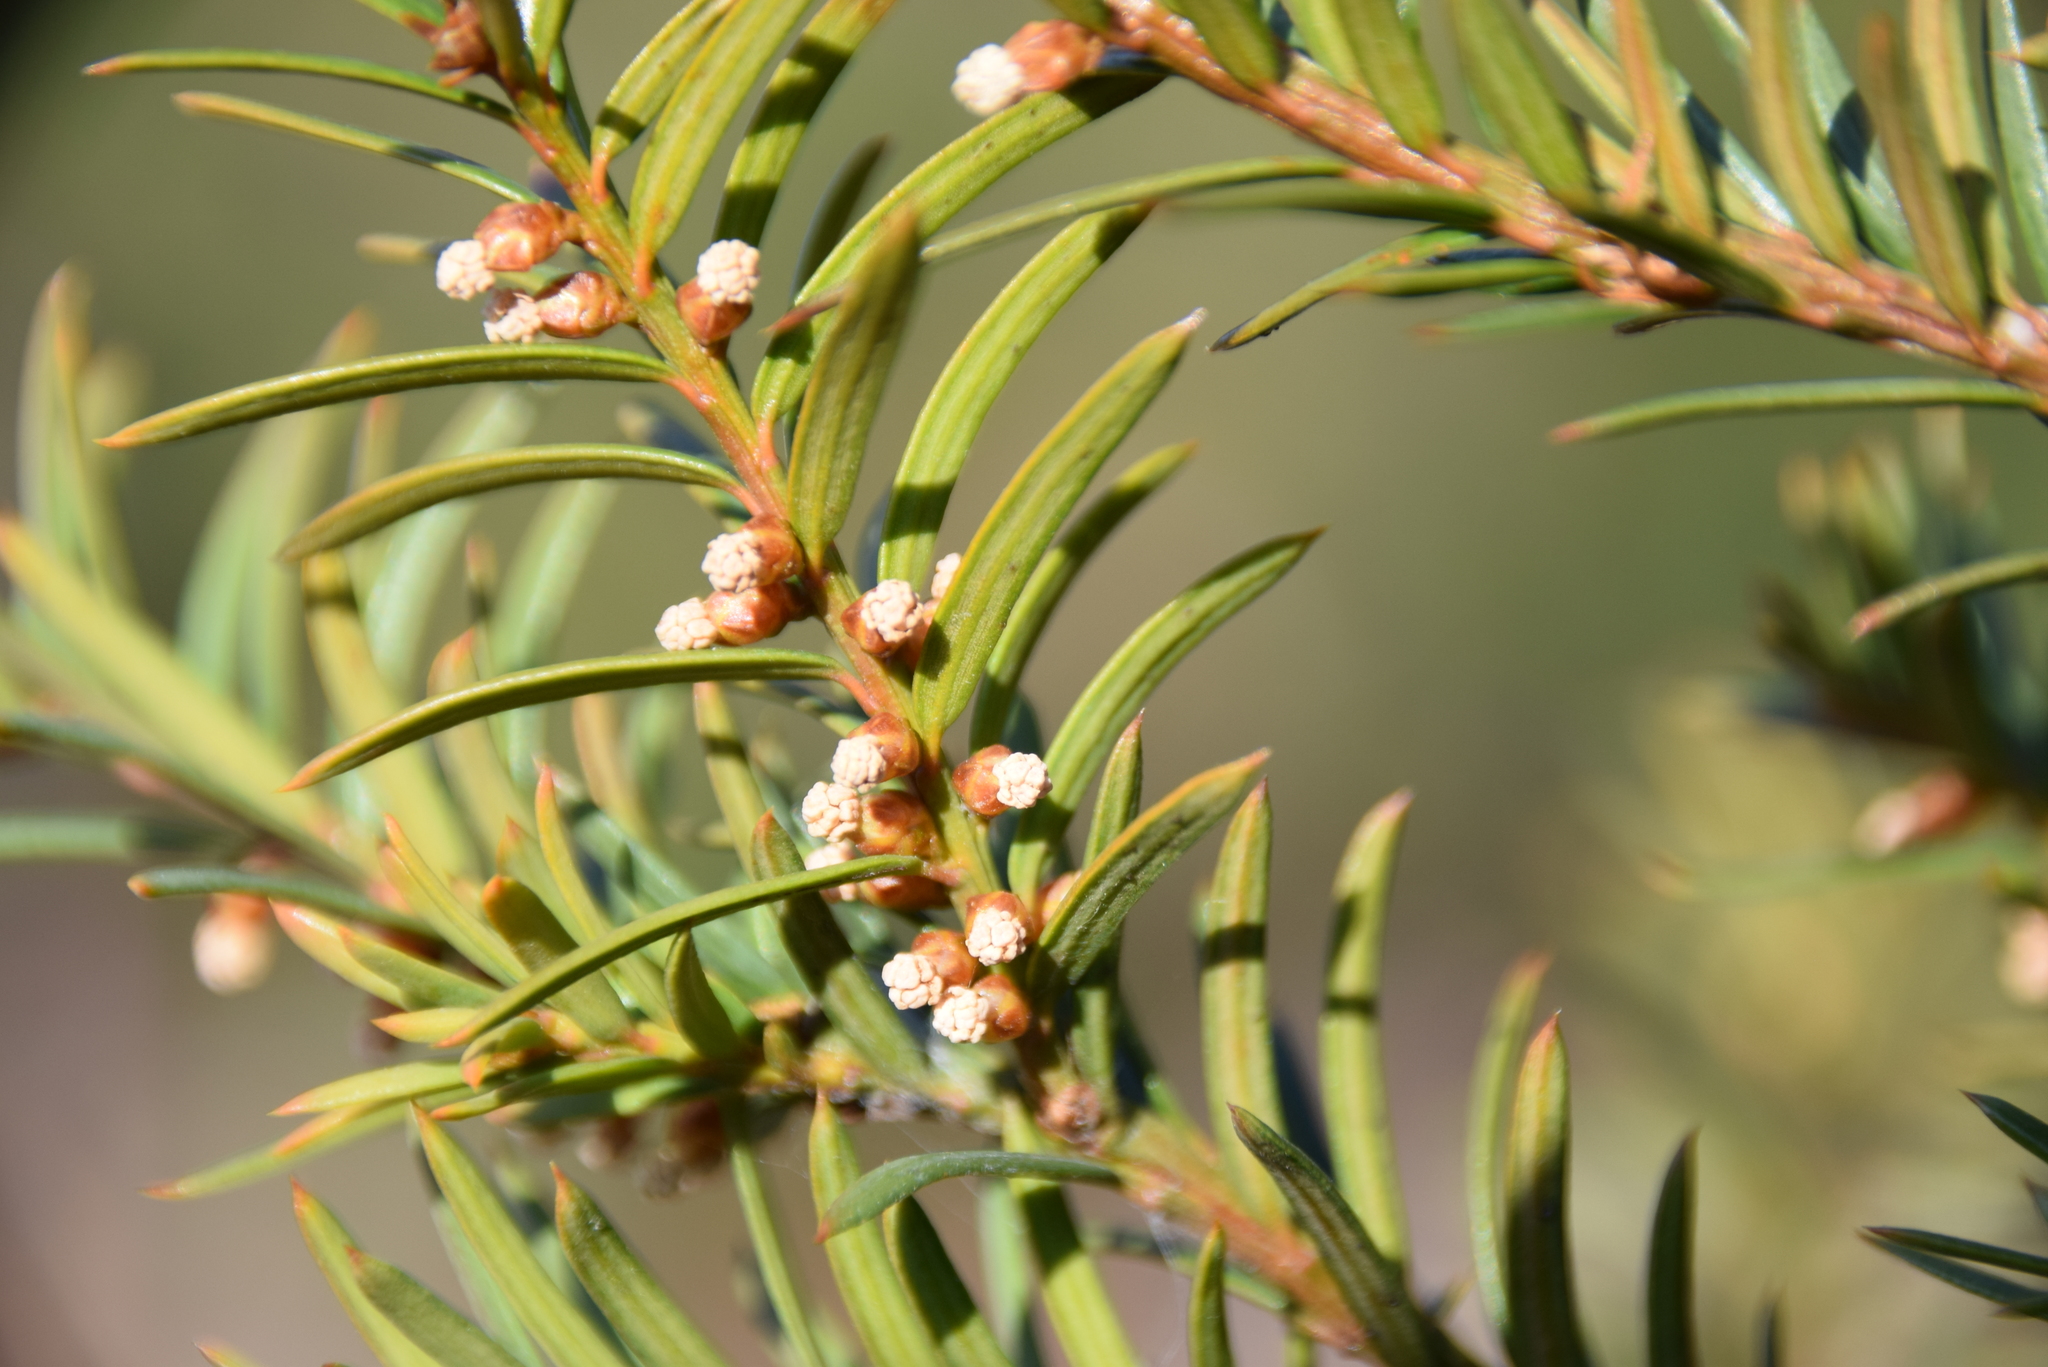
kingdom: Plantae
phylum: Tracheophyta
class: Pinopsida
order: Pinales
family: Taxaceae
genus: Taxus
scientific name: Taxus canadensis
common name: American yew
